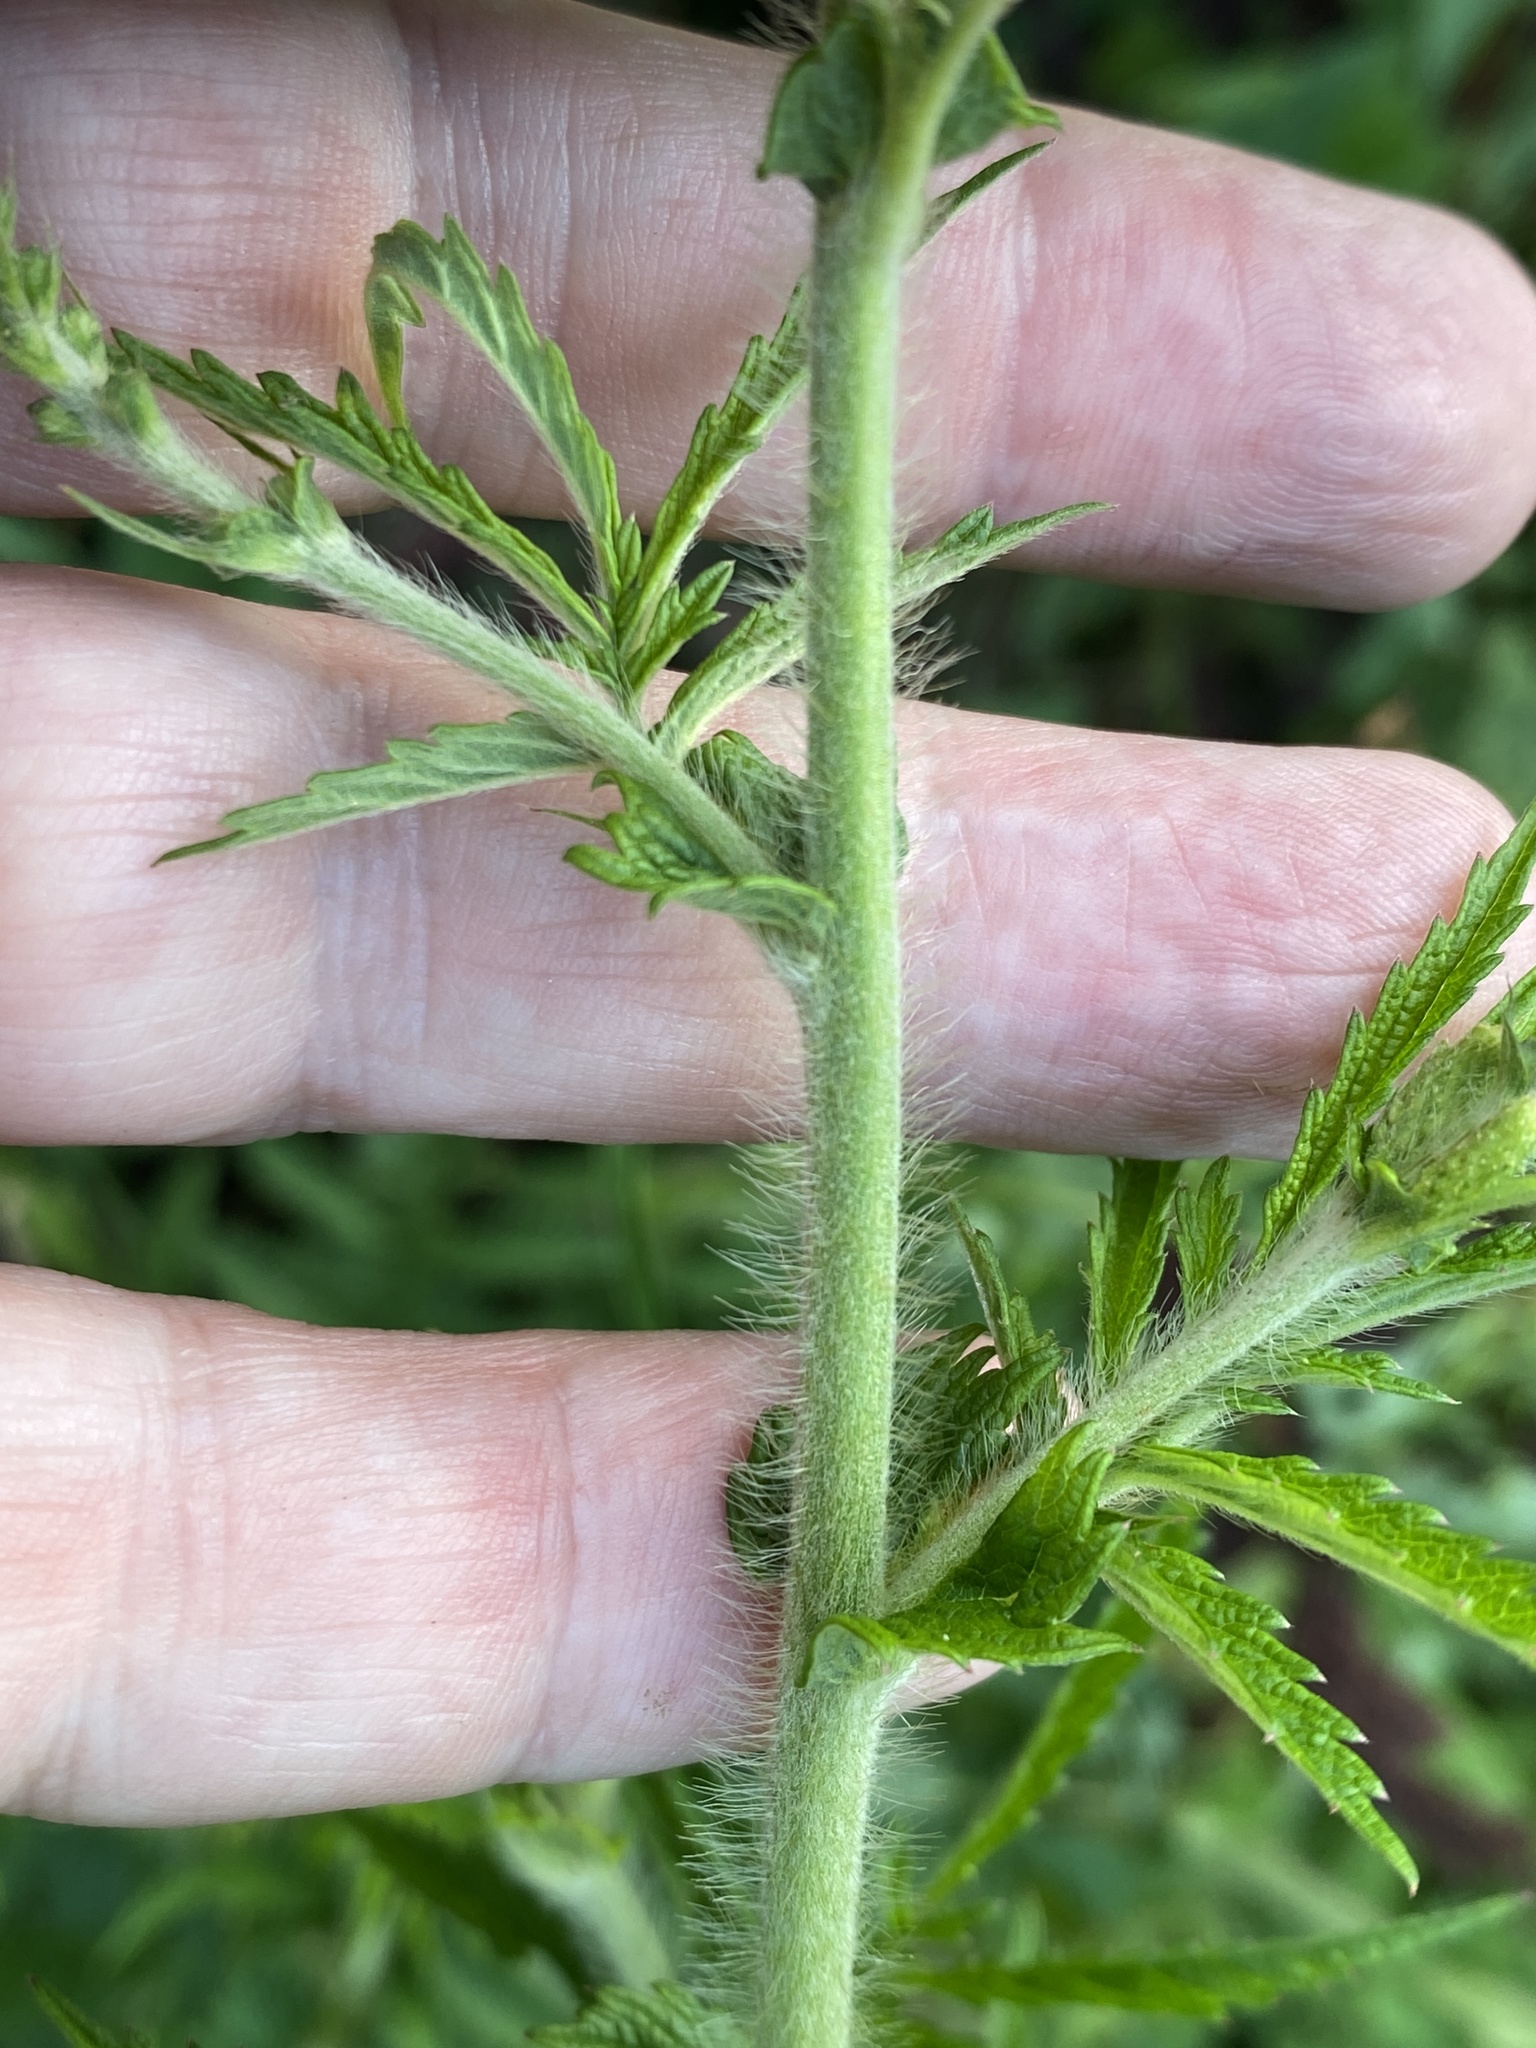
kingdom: Plantae
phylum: Tracheophyta
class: Magnoliopsida
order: Rosales
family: Rosaceae
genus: Agrimonia
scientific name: Agrimonia parviflora
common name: Harvest-lice
